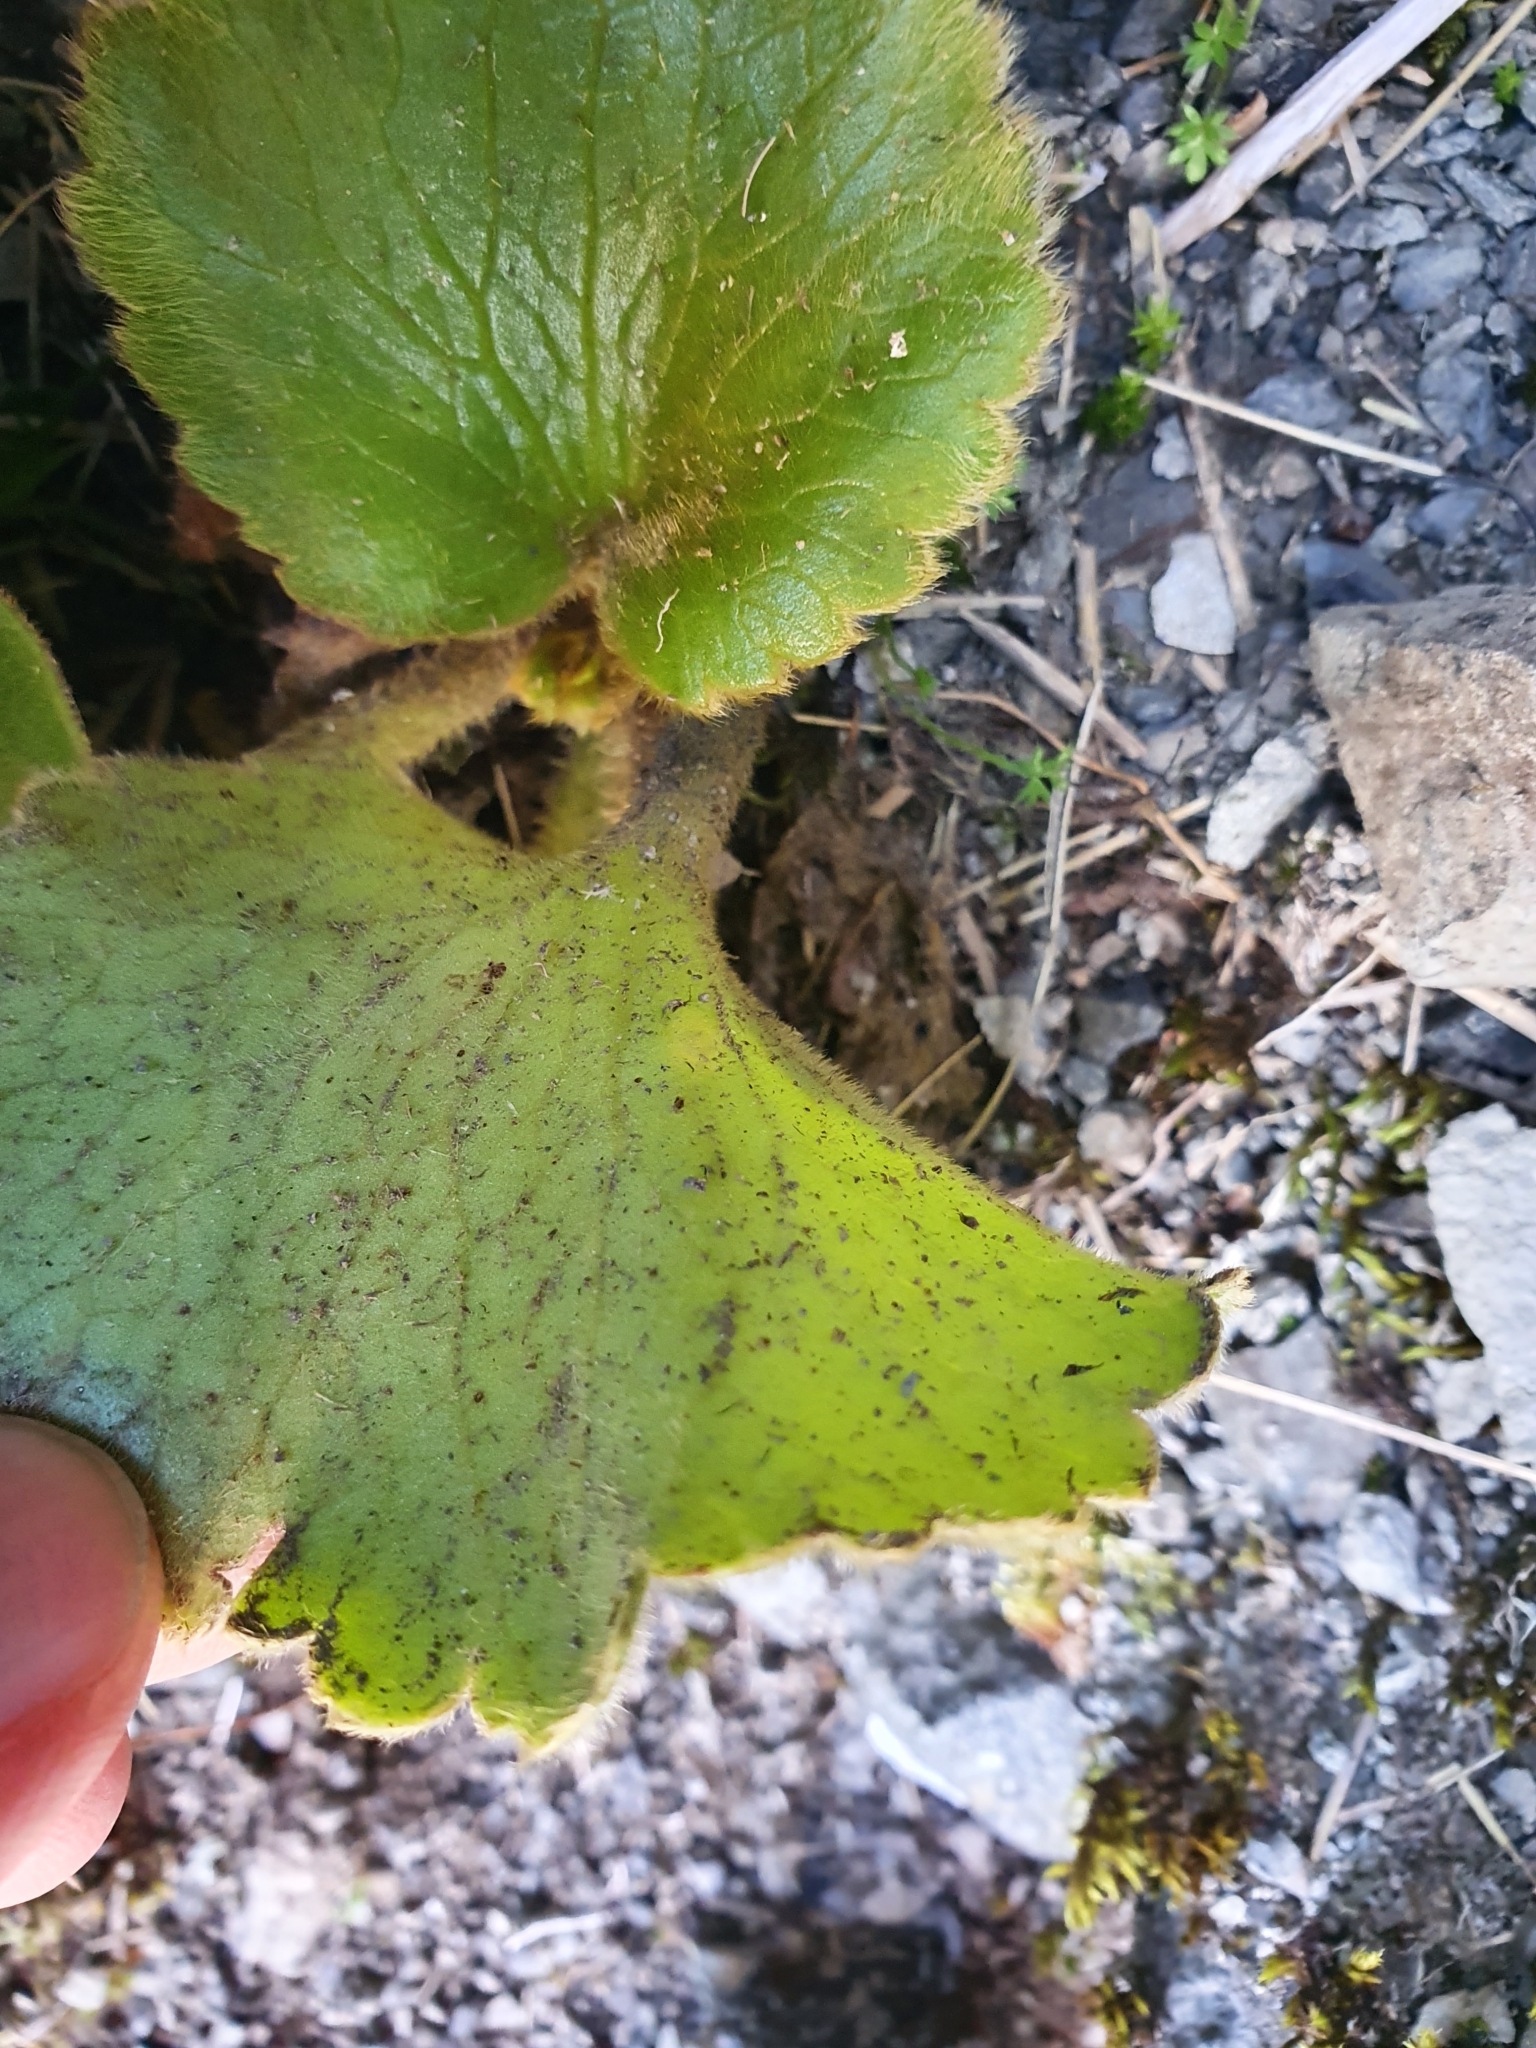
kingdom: Plantae
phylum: Tracheophyta
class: Magnoliopsida
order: Ranunculales
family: Ranunculaceae
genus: Ranunculus
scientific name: Ranunculus insignis
